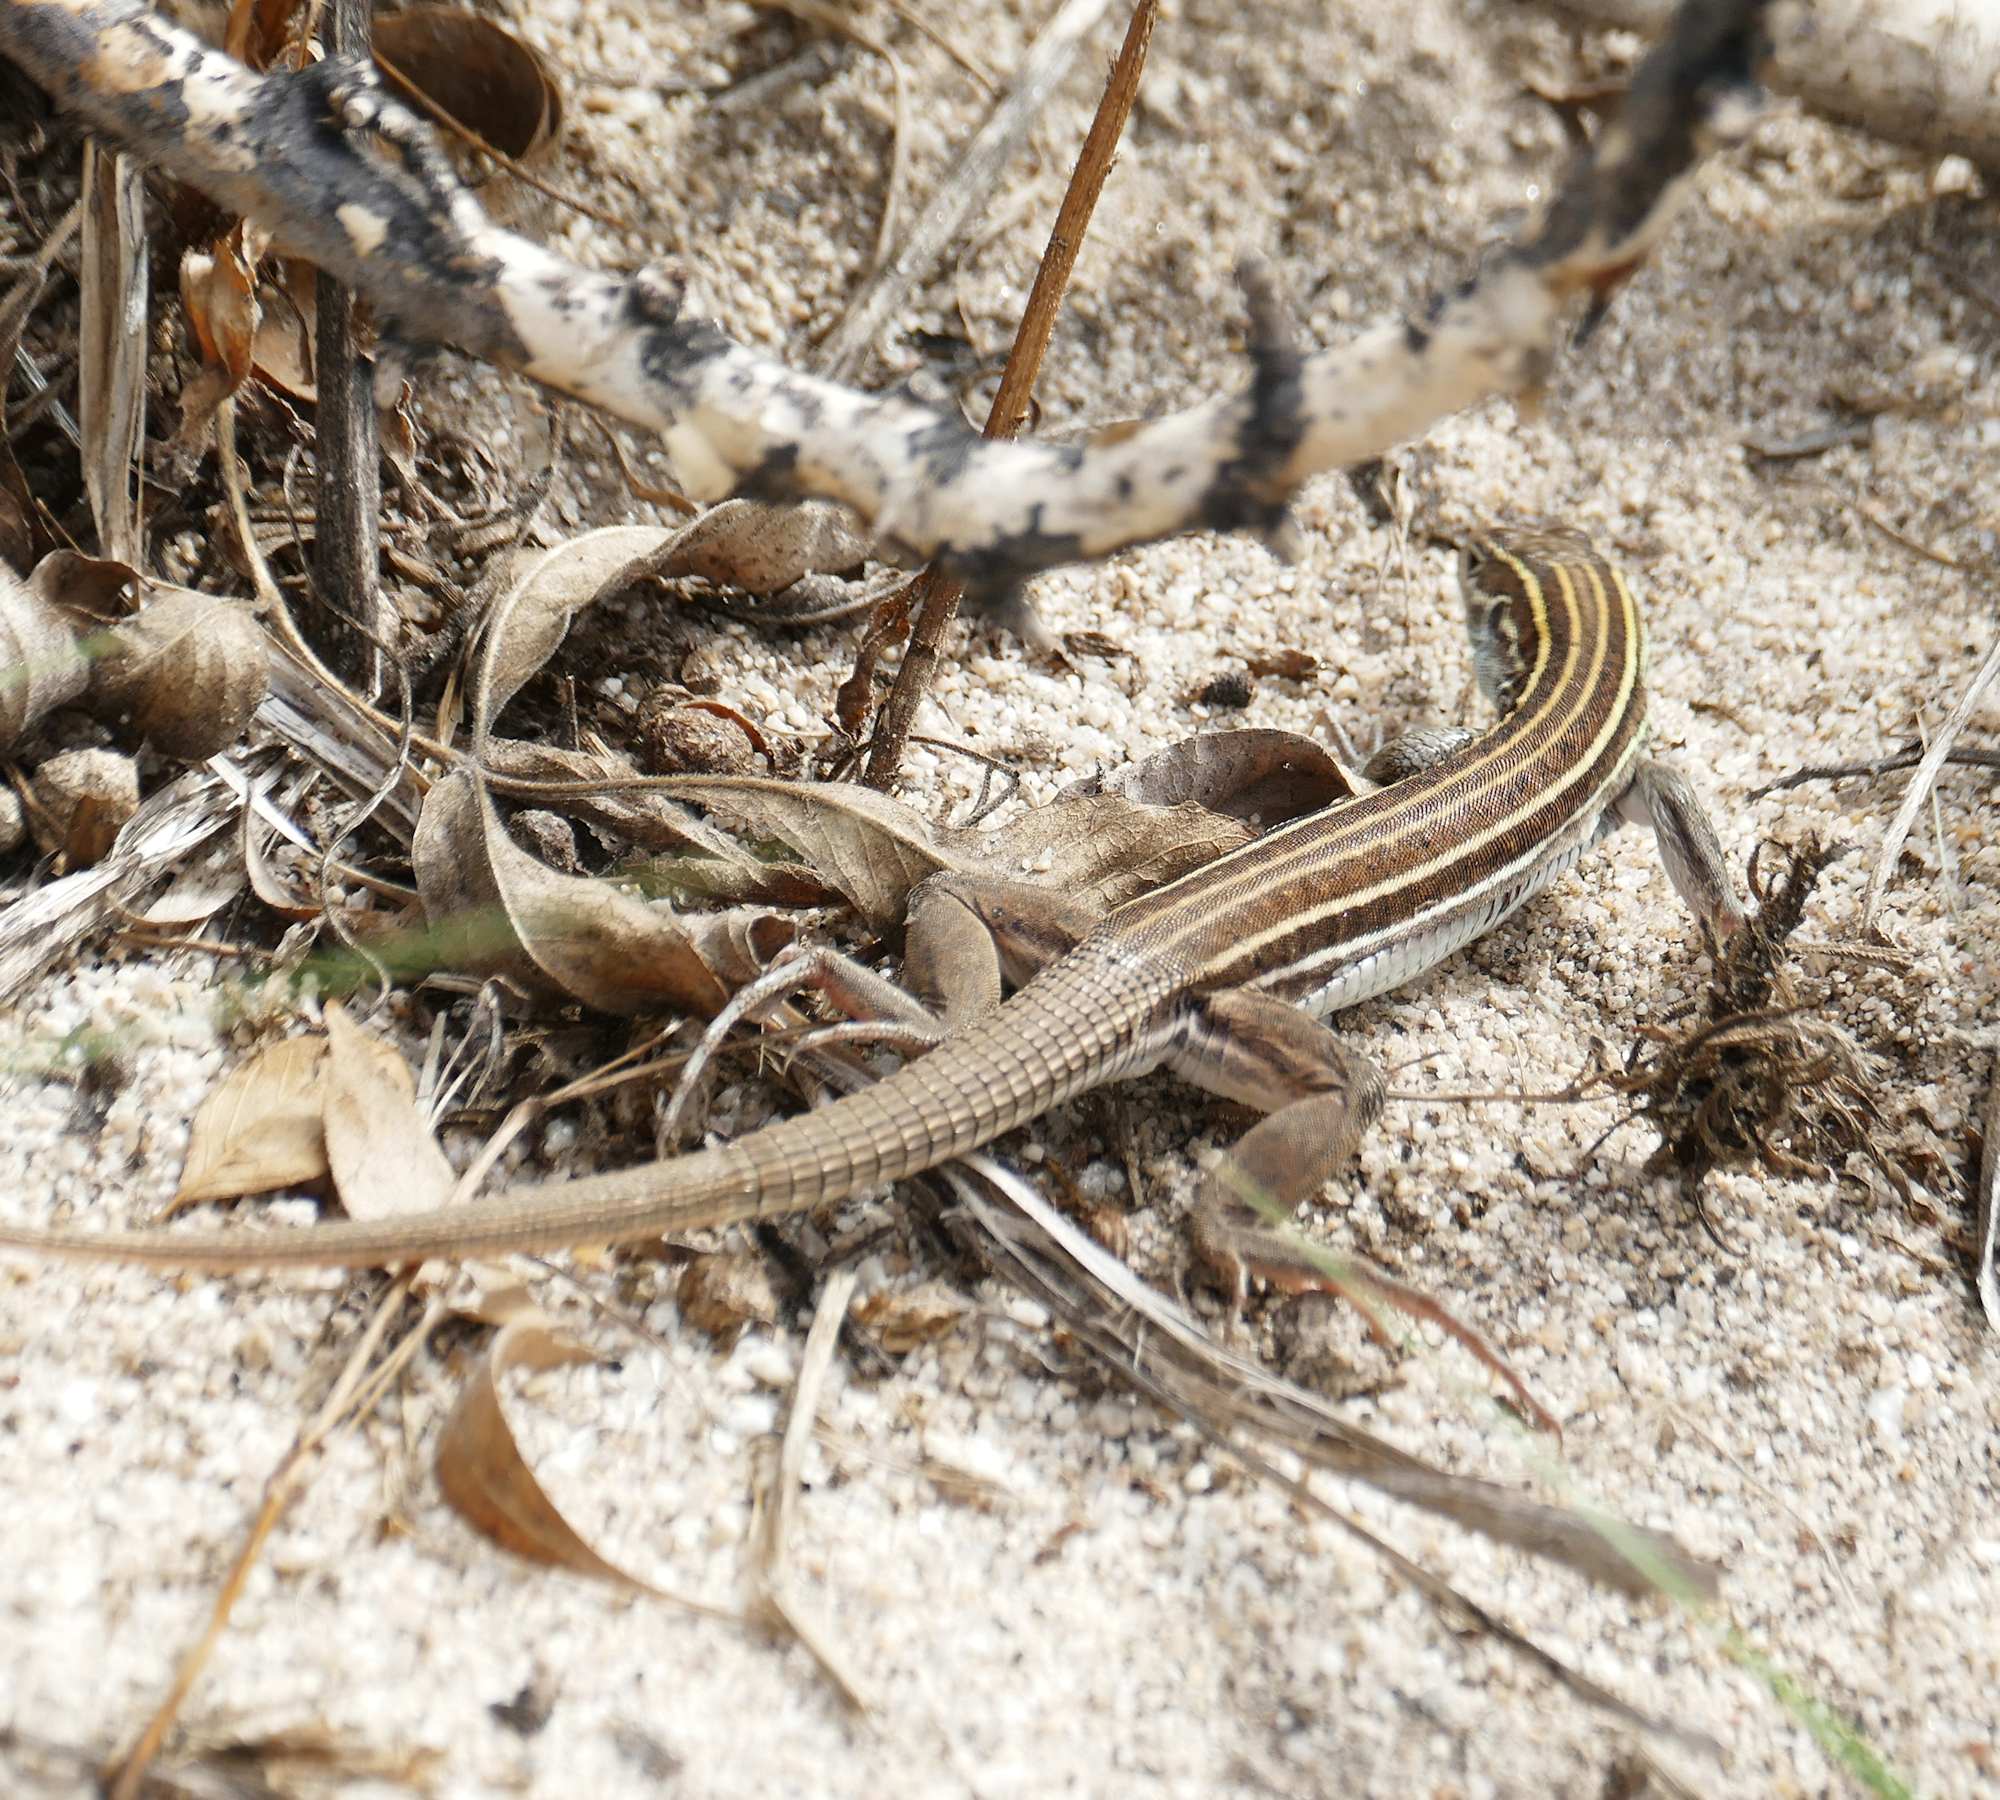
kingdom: Animalia
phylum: Chordata
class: Squamata
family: Teiidae
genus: Aspidoscelis
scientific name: Aspidoscelis sonorae
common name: Sonoran spotted whiptail
